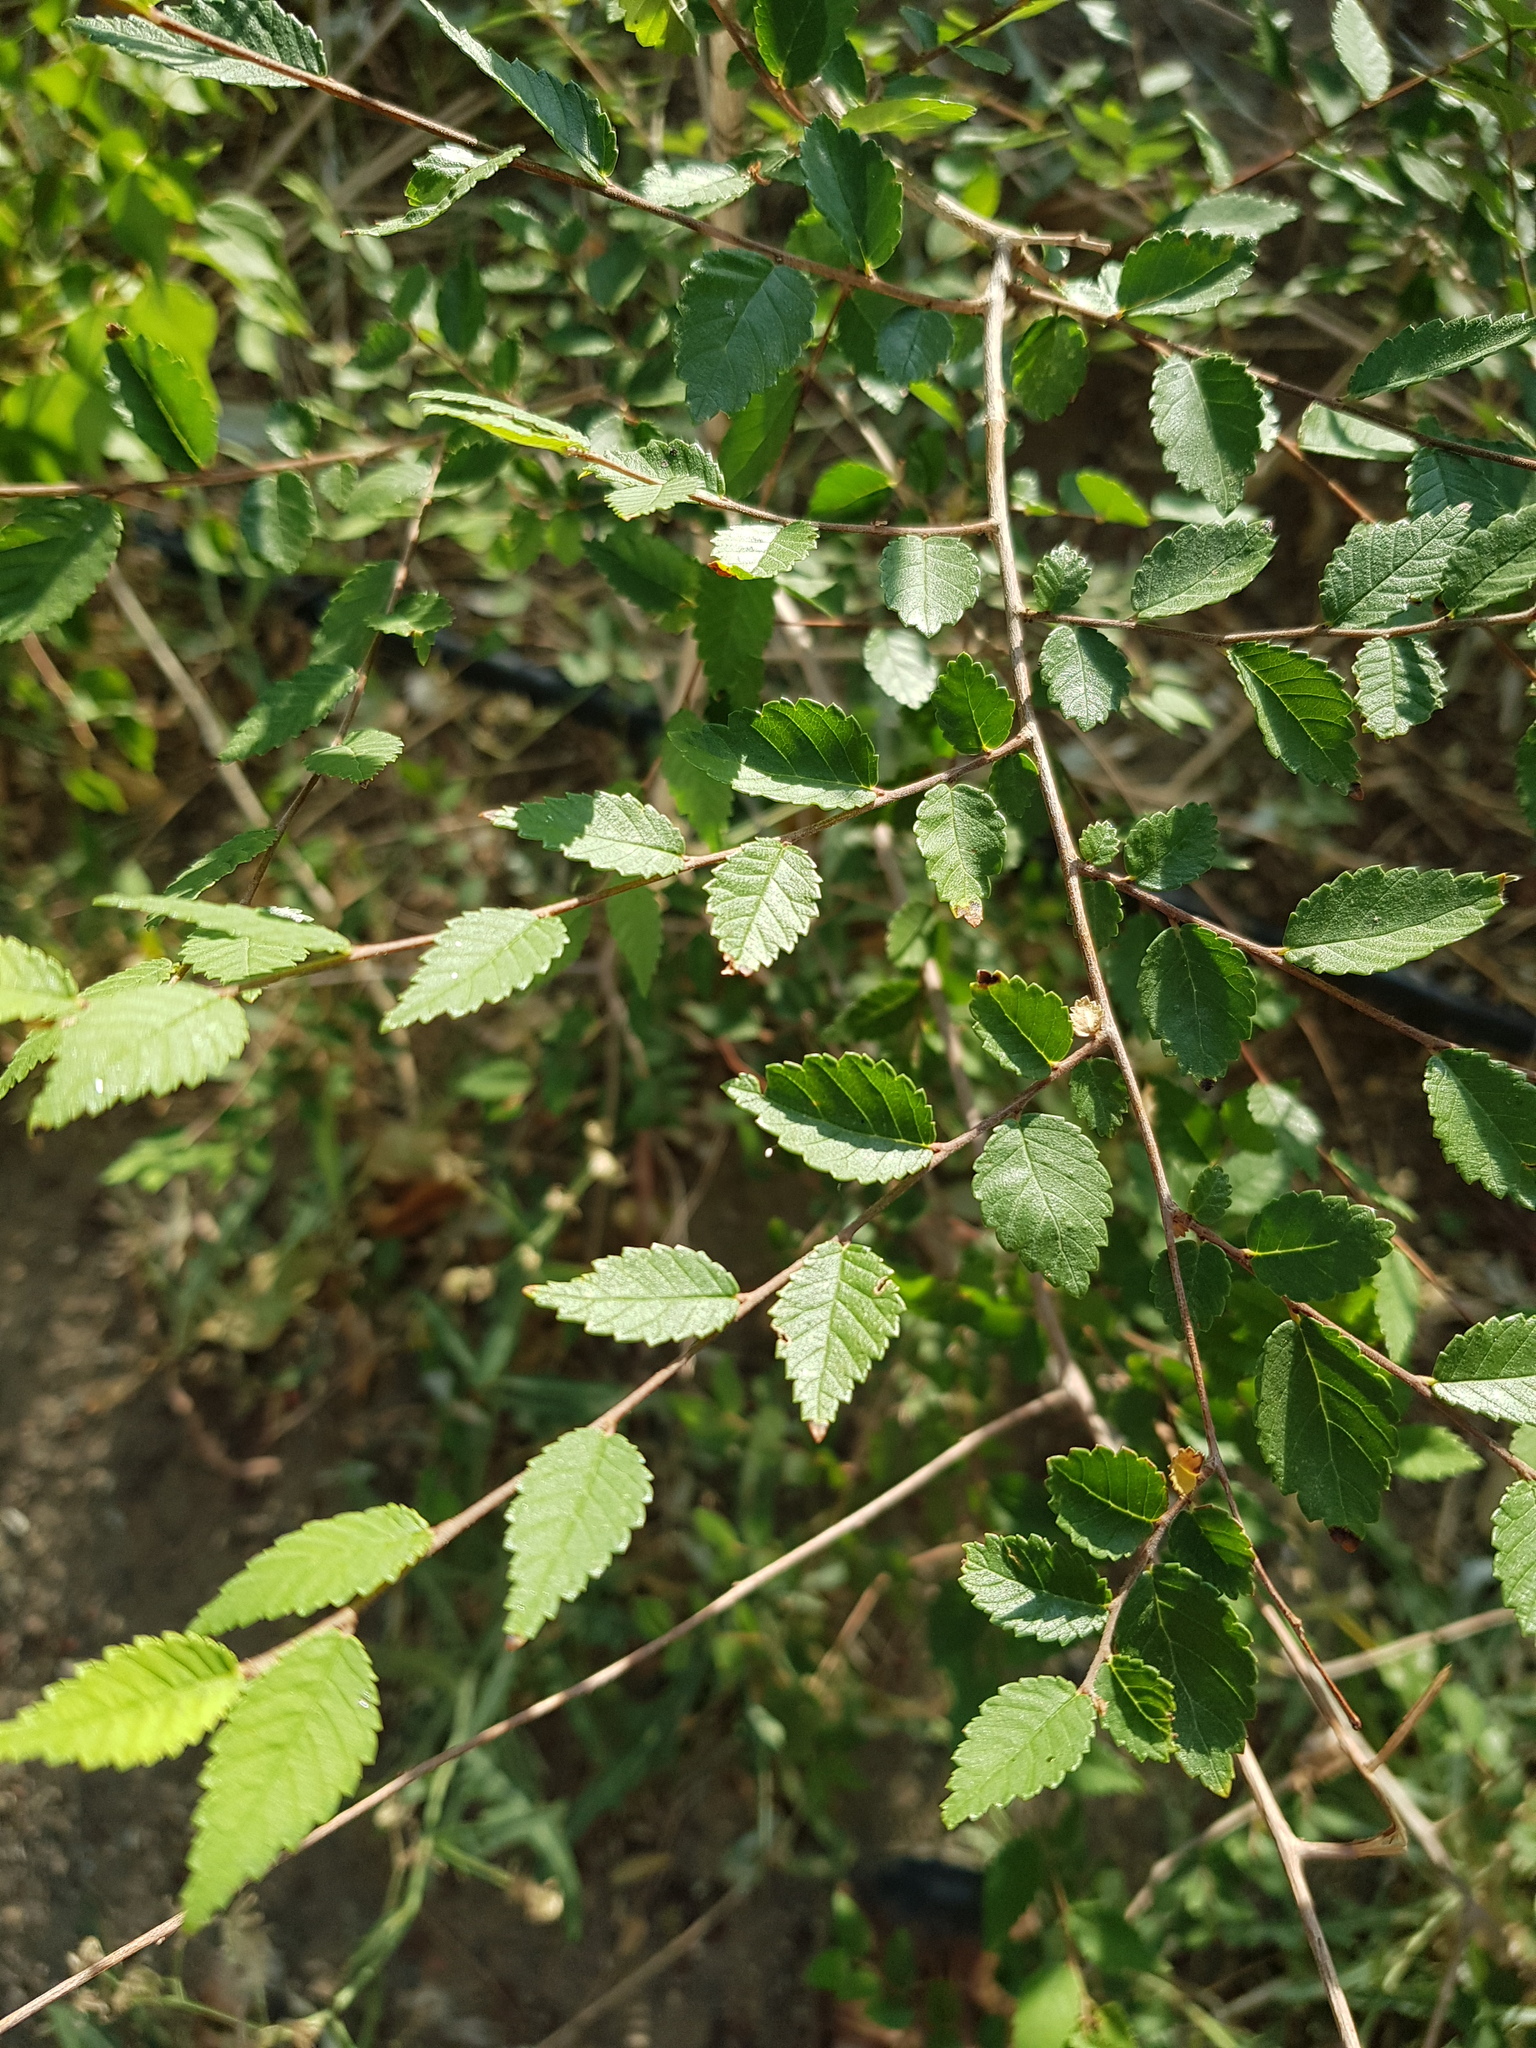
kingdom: Plantae
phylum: Tracheophyta
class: Magnoliopsida
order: Rosales
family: Ulmaceae
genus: Ulmus
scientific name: Ulmus pumila
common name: Siberian elm
